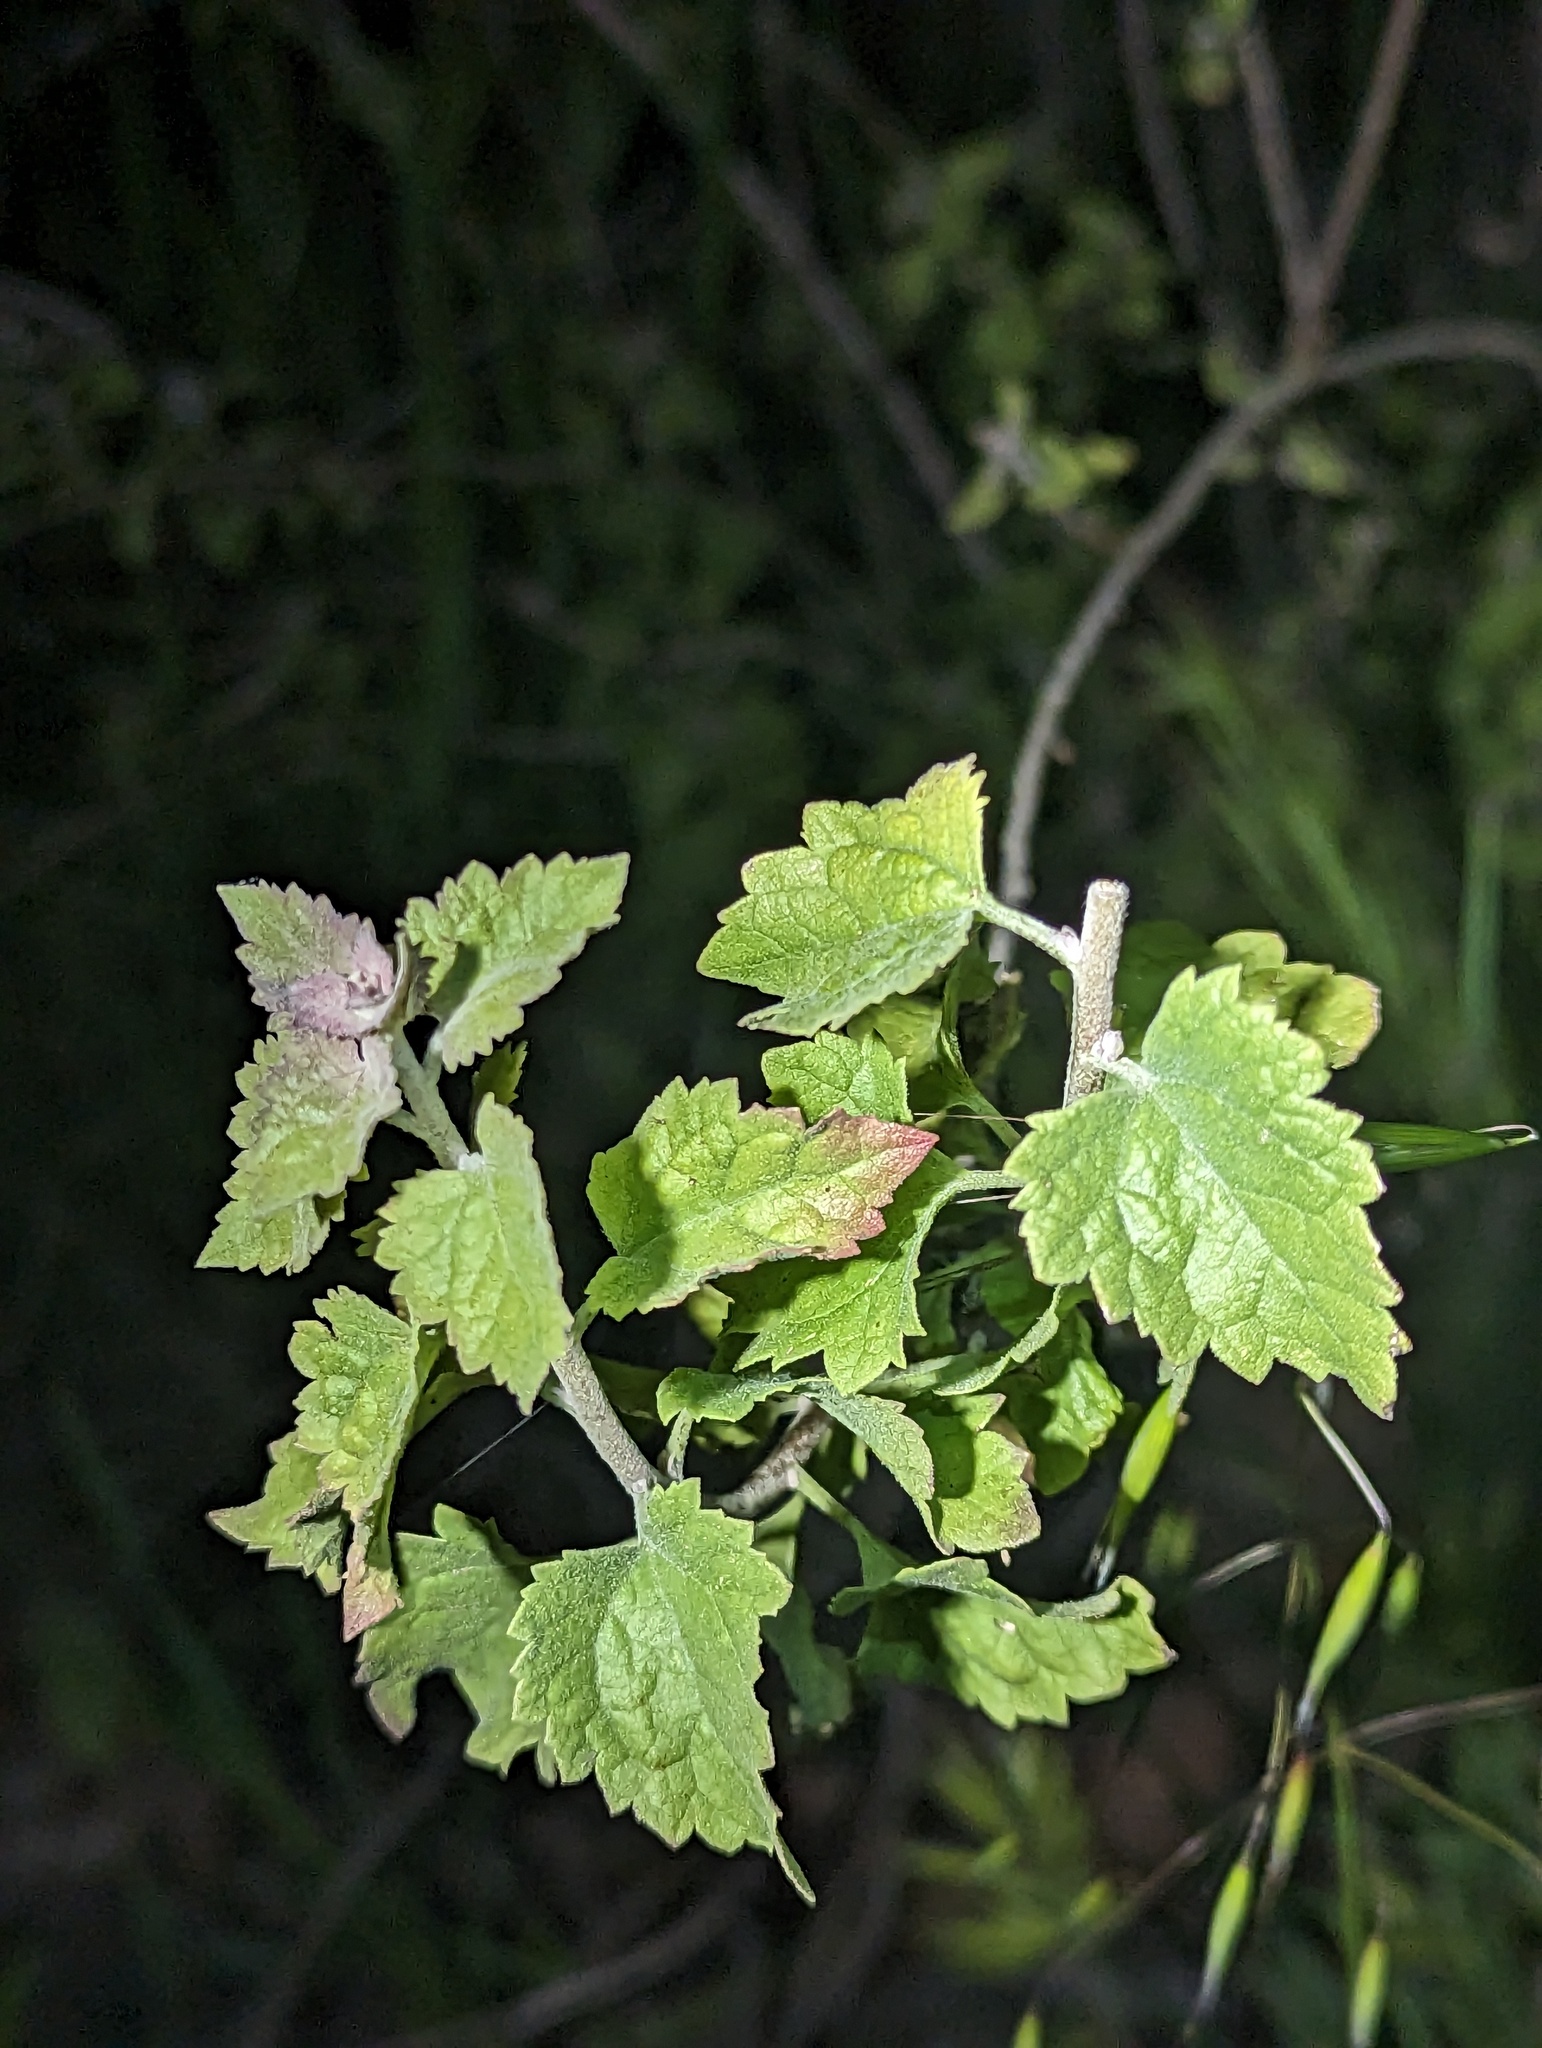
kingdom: Plantae
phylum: Tracheophyta
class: Magnoliopsida
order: Asterales
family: Asteraceae
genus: Brickellia
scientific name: Brickellia californica
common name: California brickellbush
